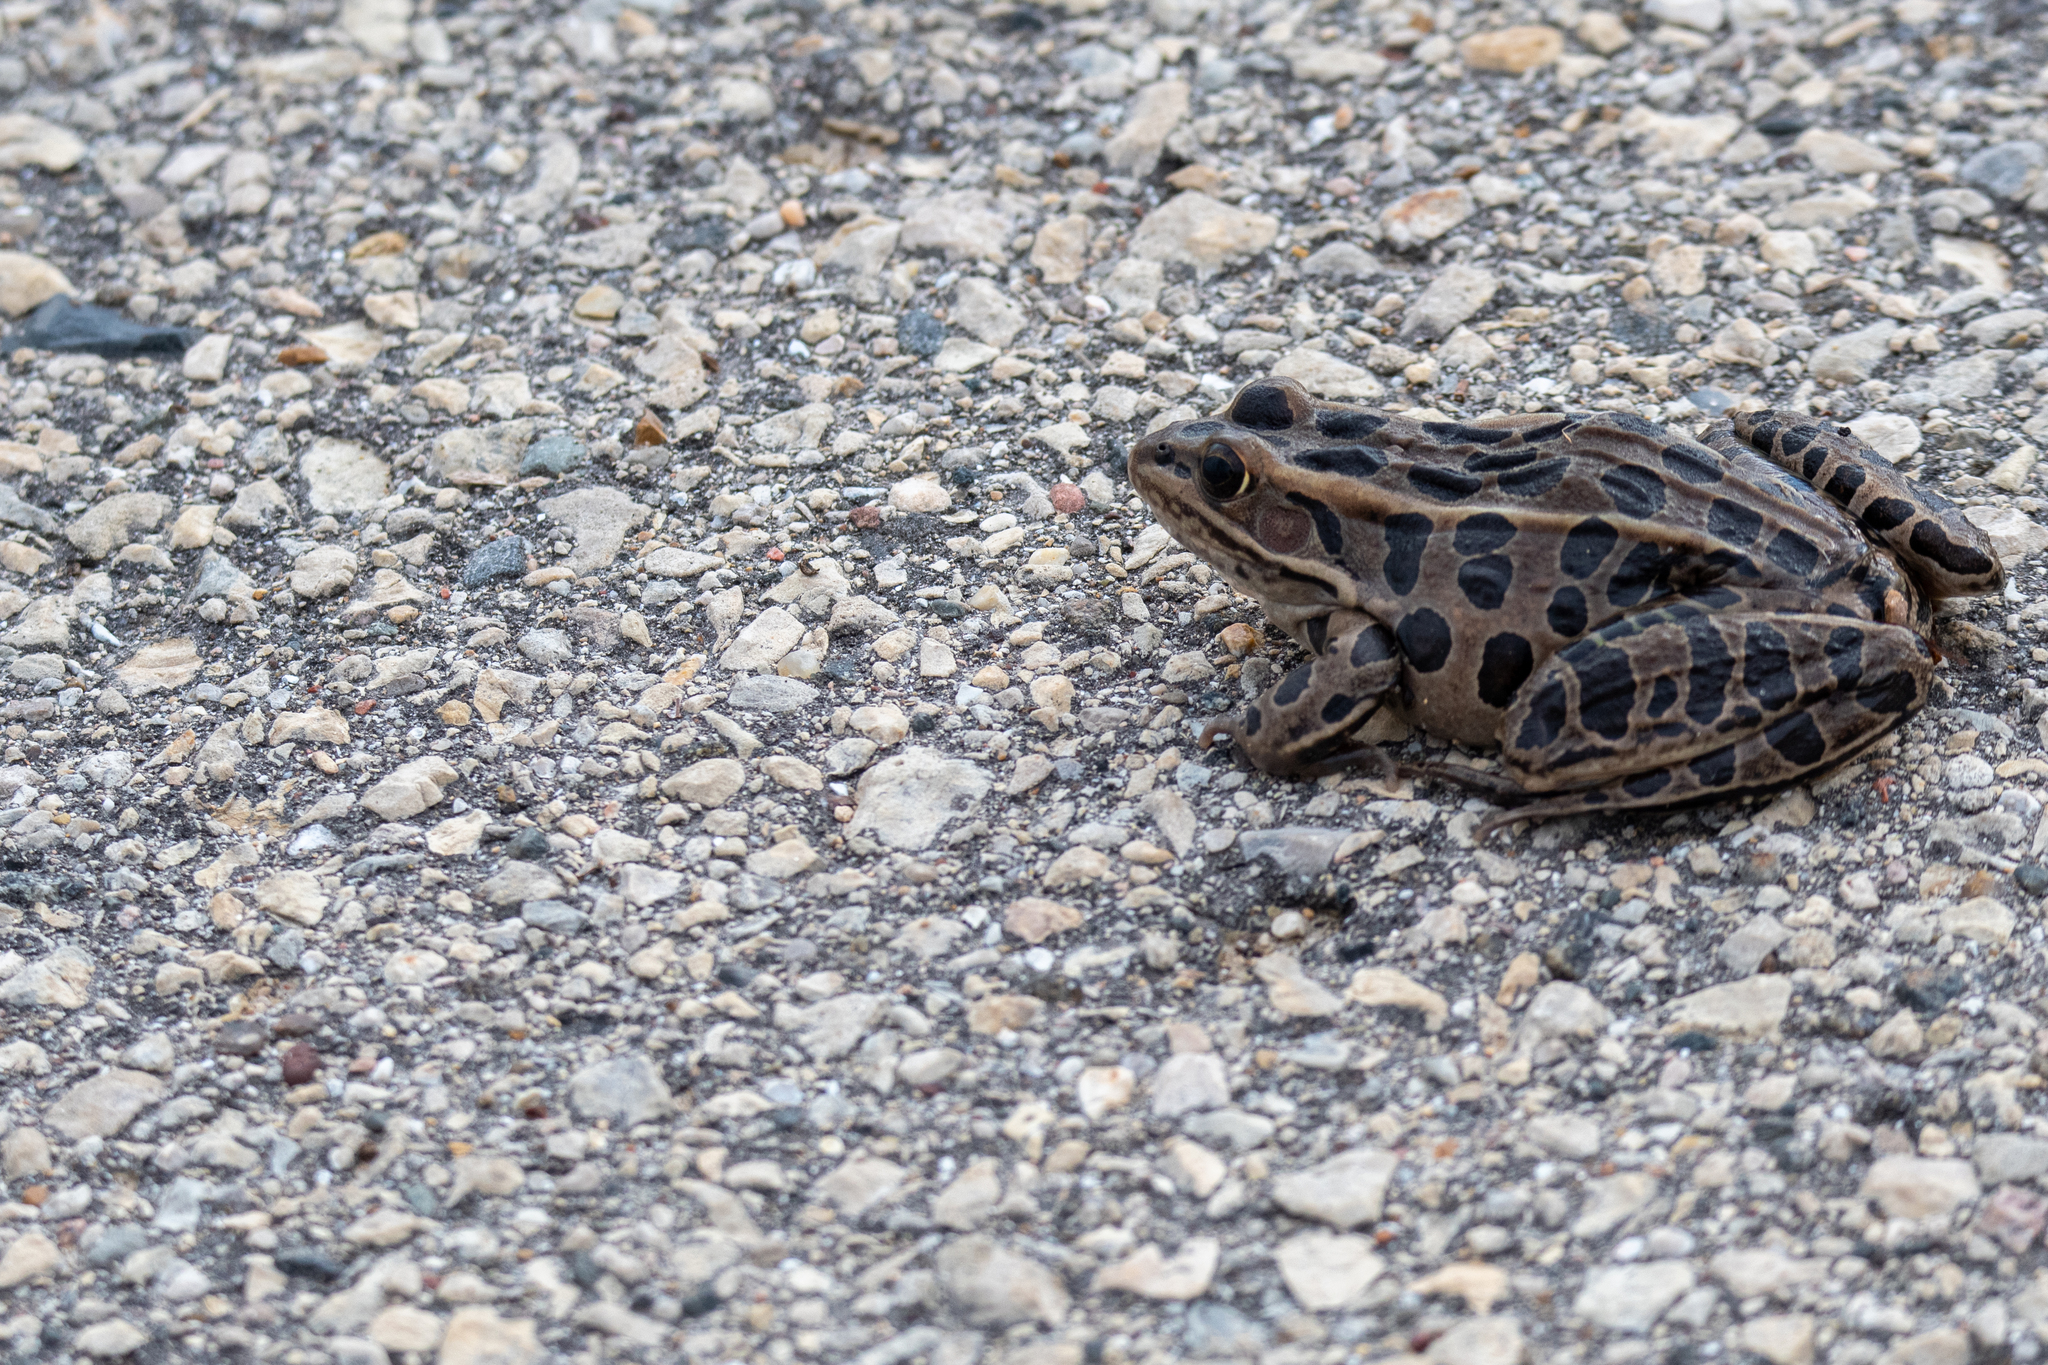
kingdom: Animalia
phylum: Chordata
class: Amphibia
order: Anura
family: Ranidae
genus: Lithobates
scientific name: Lithobates pipiens
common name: Northern leopard frog
